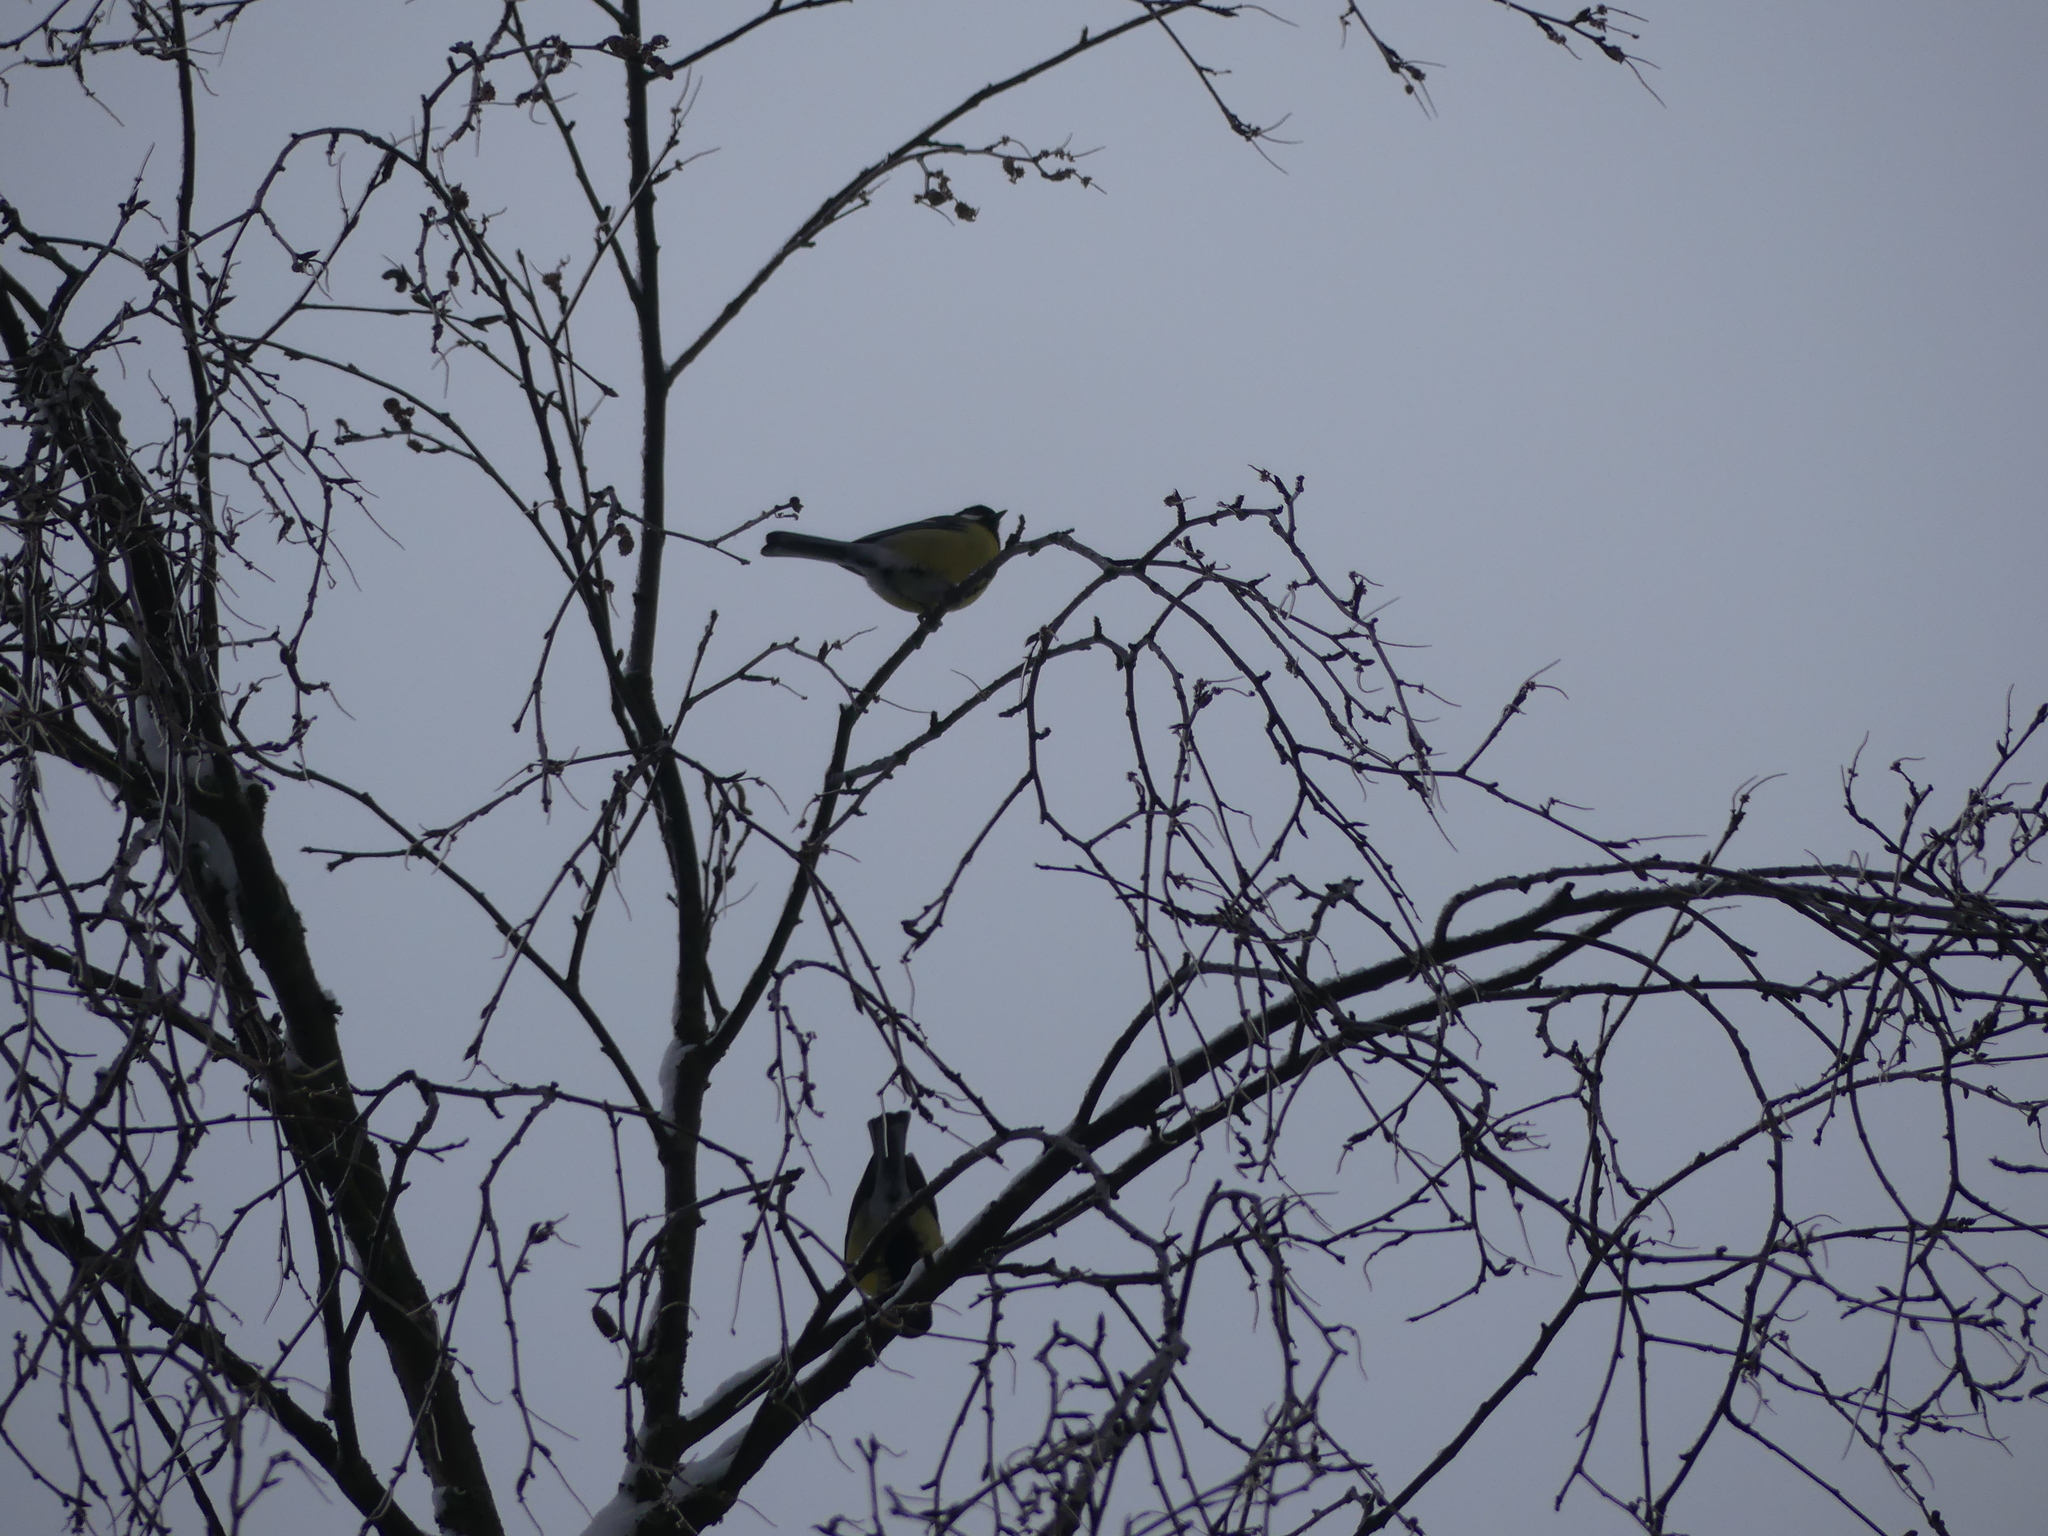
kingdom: Animalia
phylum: Chordata
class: Aves
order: Passeriformes
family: Paridae
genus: Parus
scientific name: Parus major
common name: Great tit
